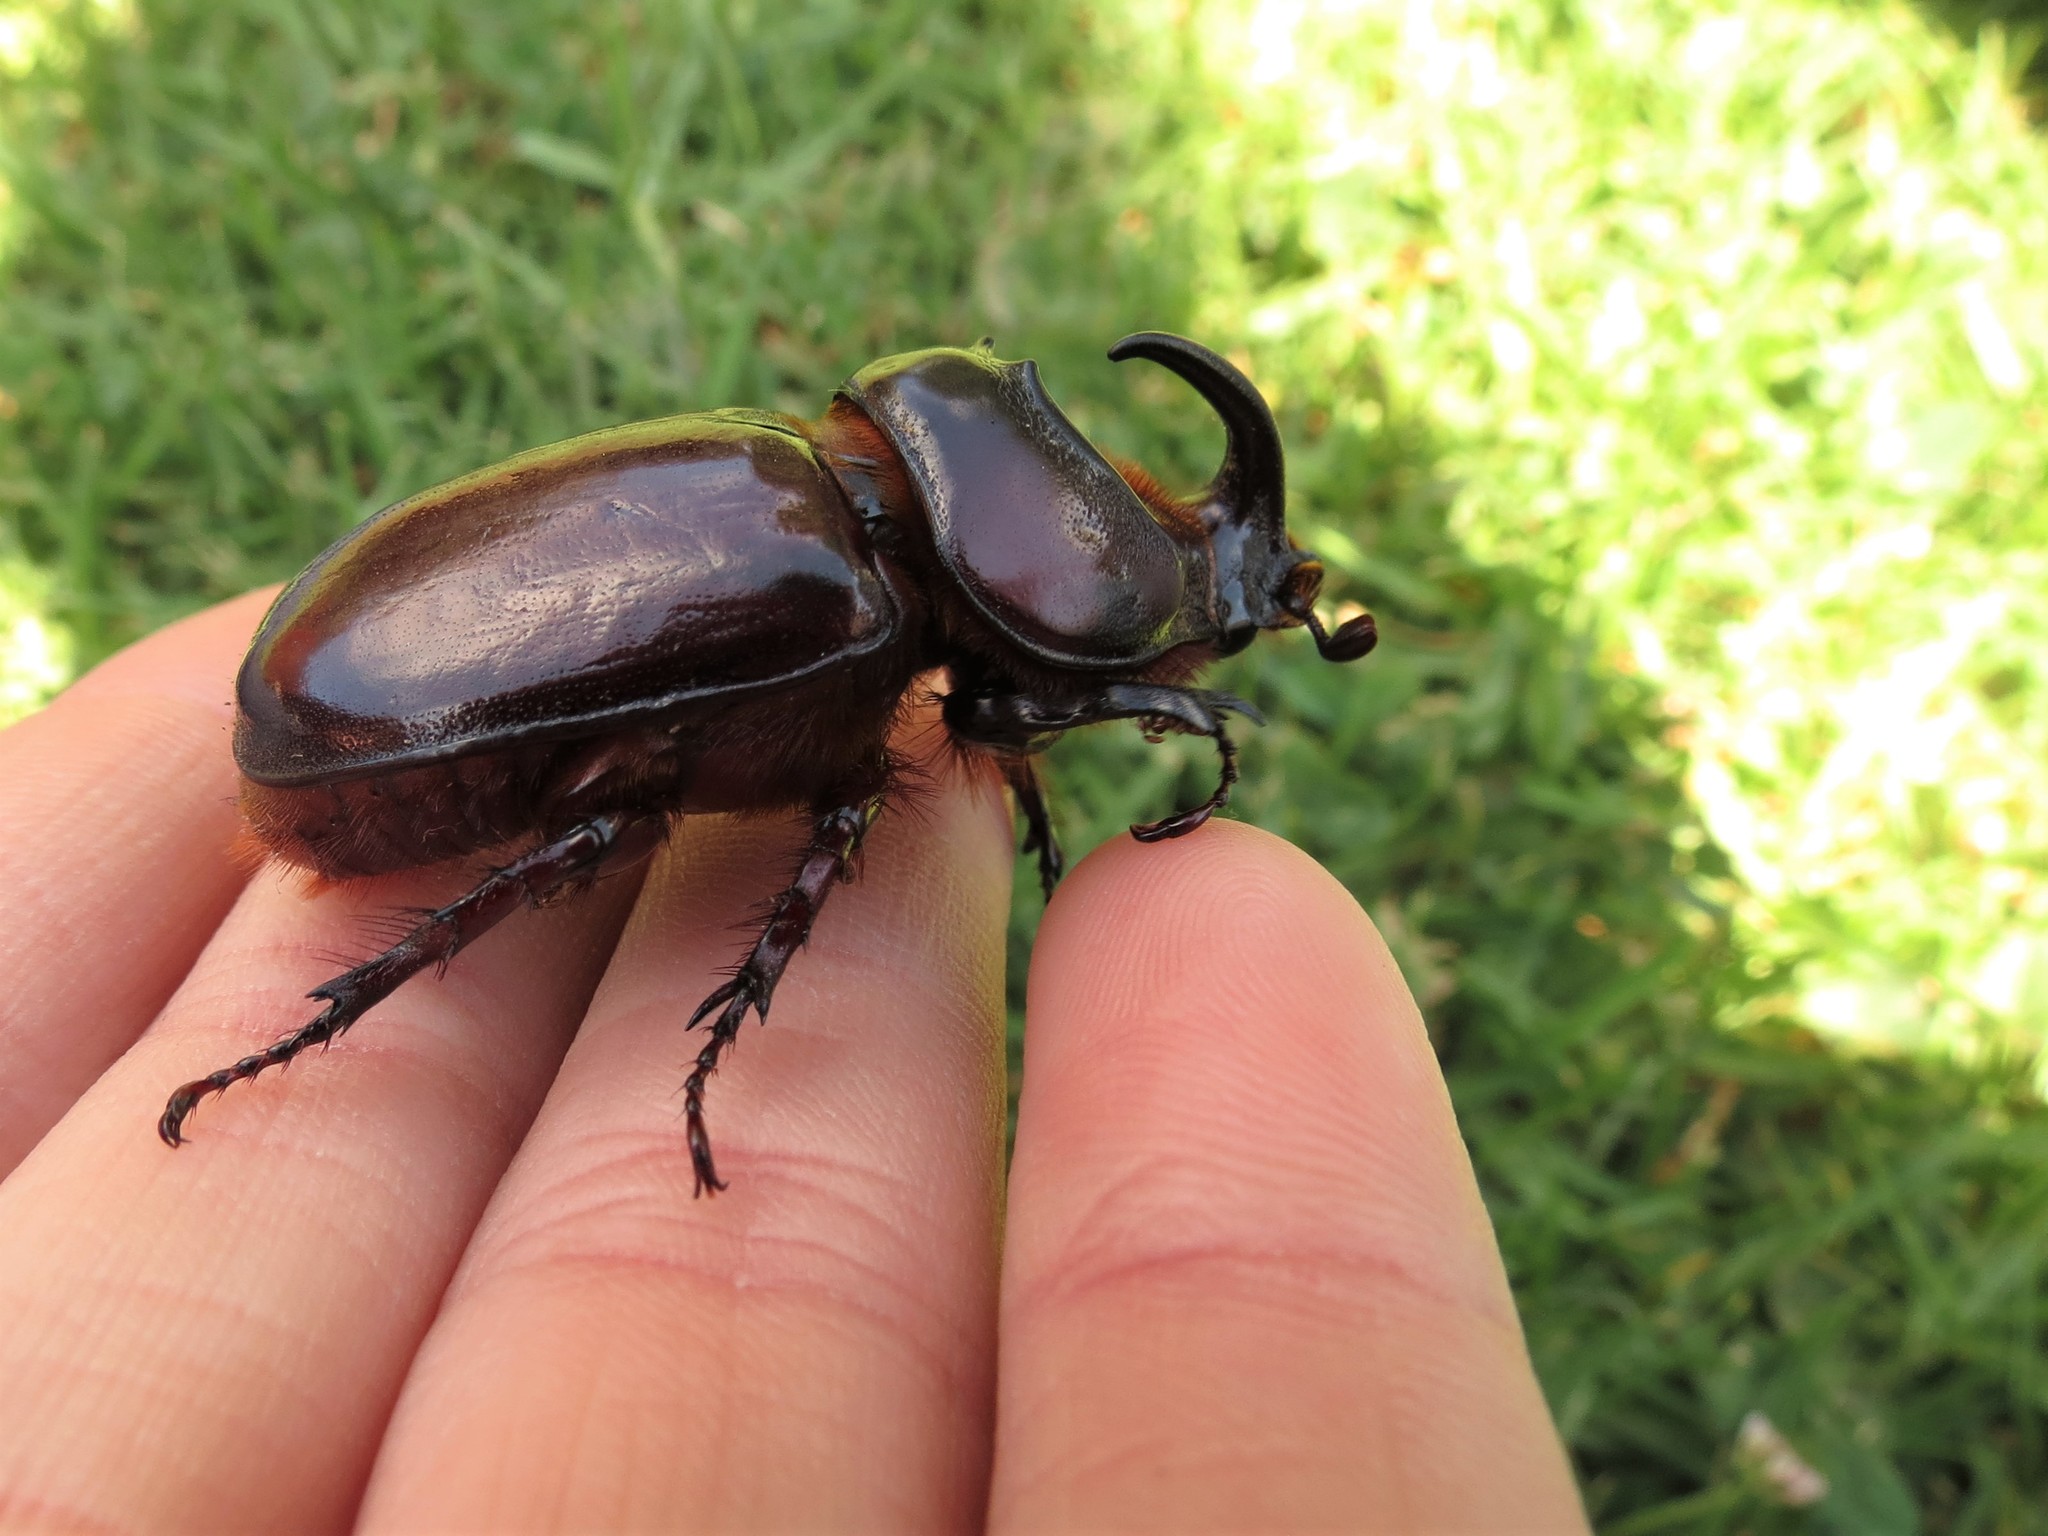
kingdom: Animalia
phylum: Arthropoda
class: Insecta
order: Coleoptera
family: Scarabaeidae
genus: Oryctes
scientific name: Oryctes boas
